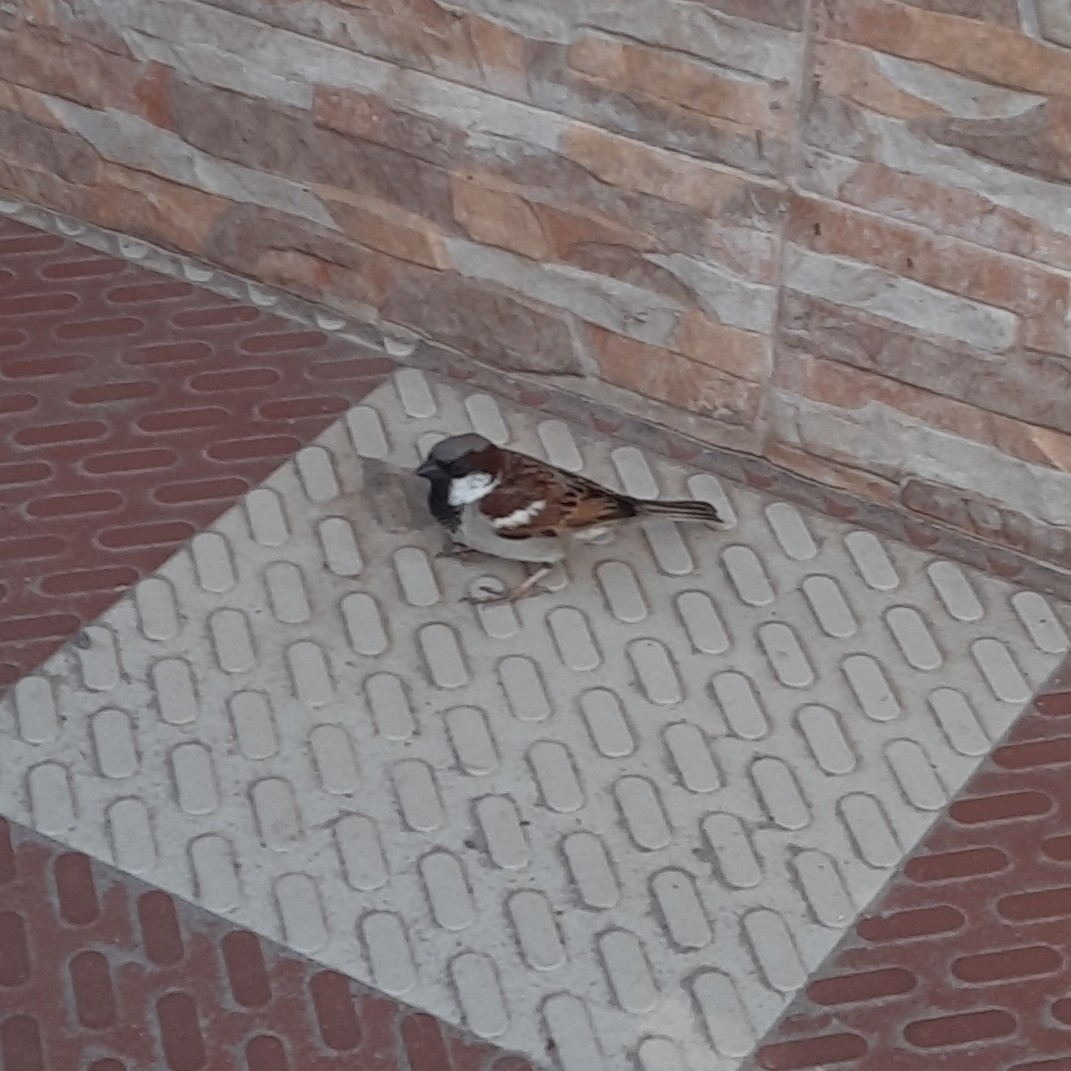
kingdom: Animalia
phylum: Chordata
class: Aves
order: Passeriformes
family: Passeridae
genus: Passer
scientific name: Passer domesticus
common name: House sparrow
